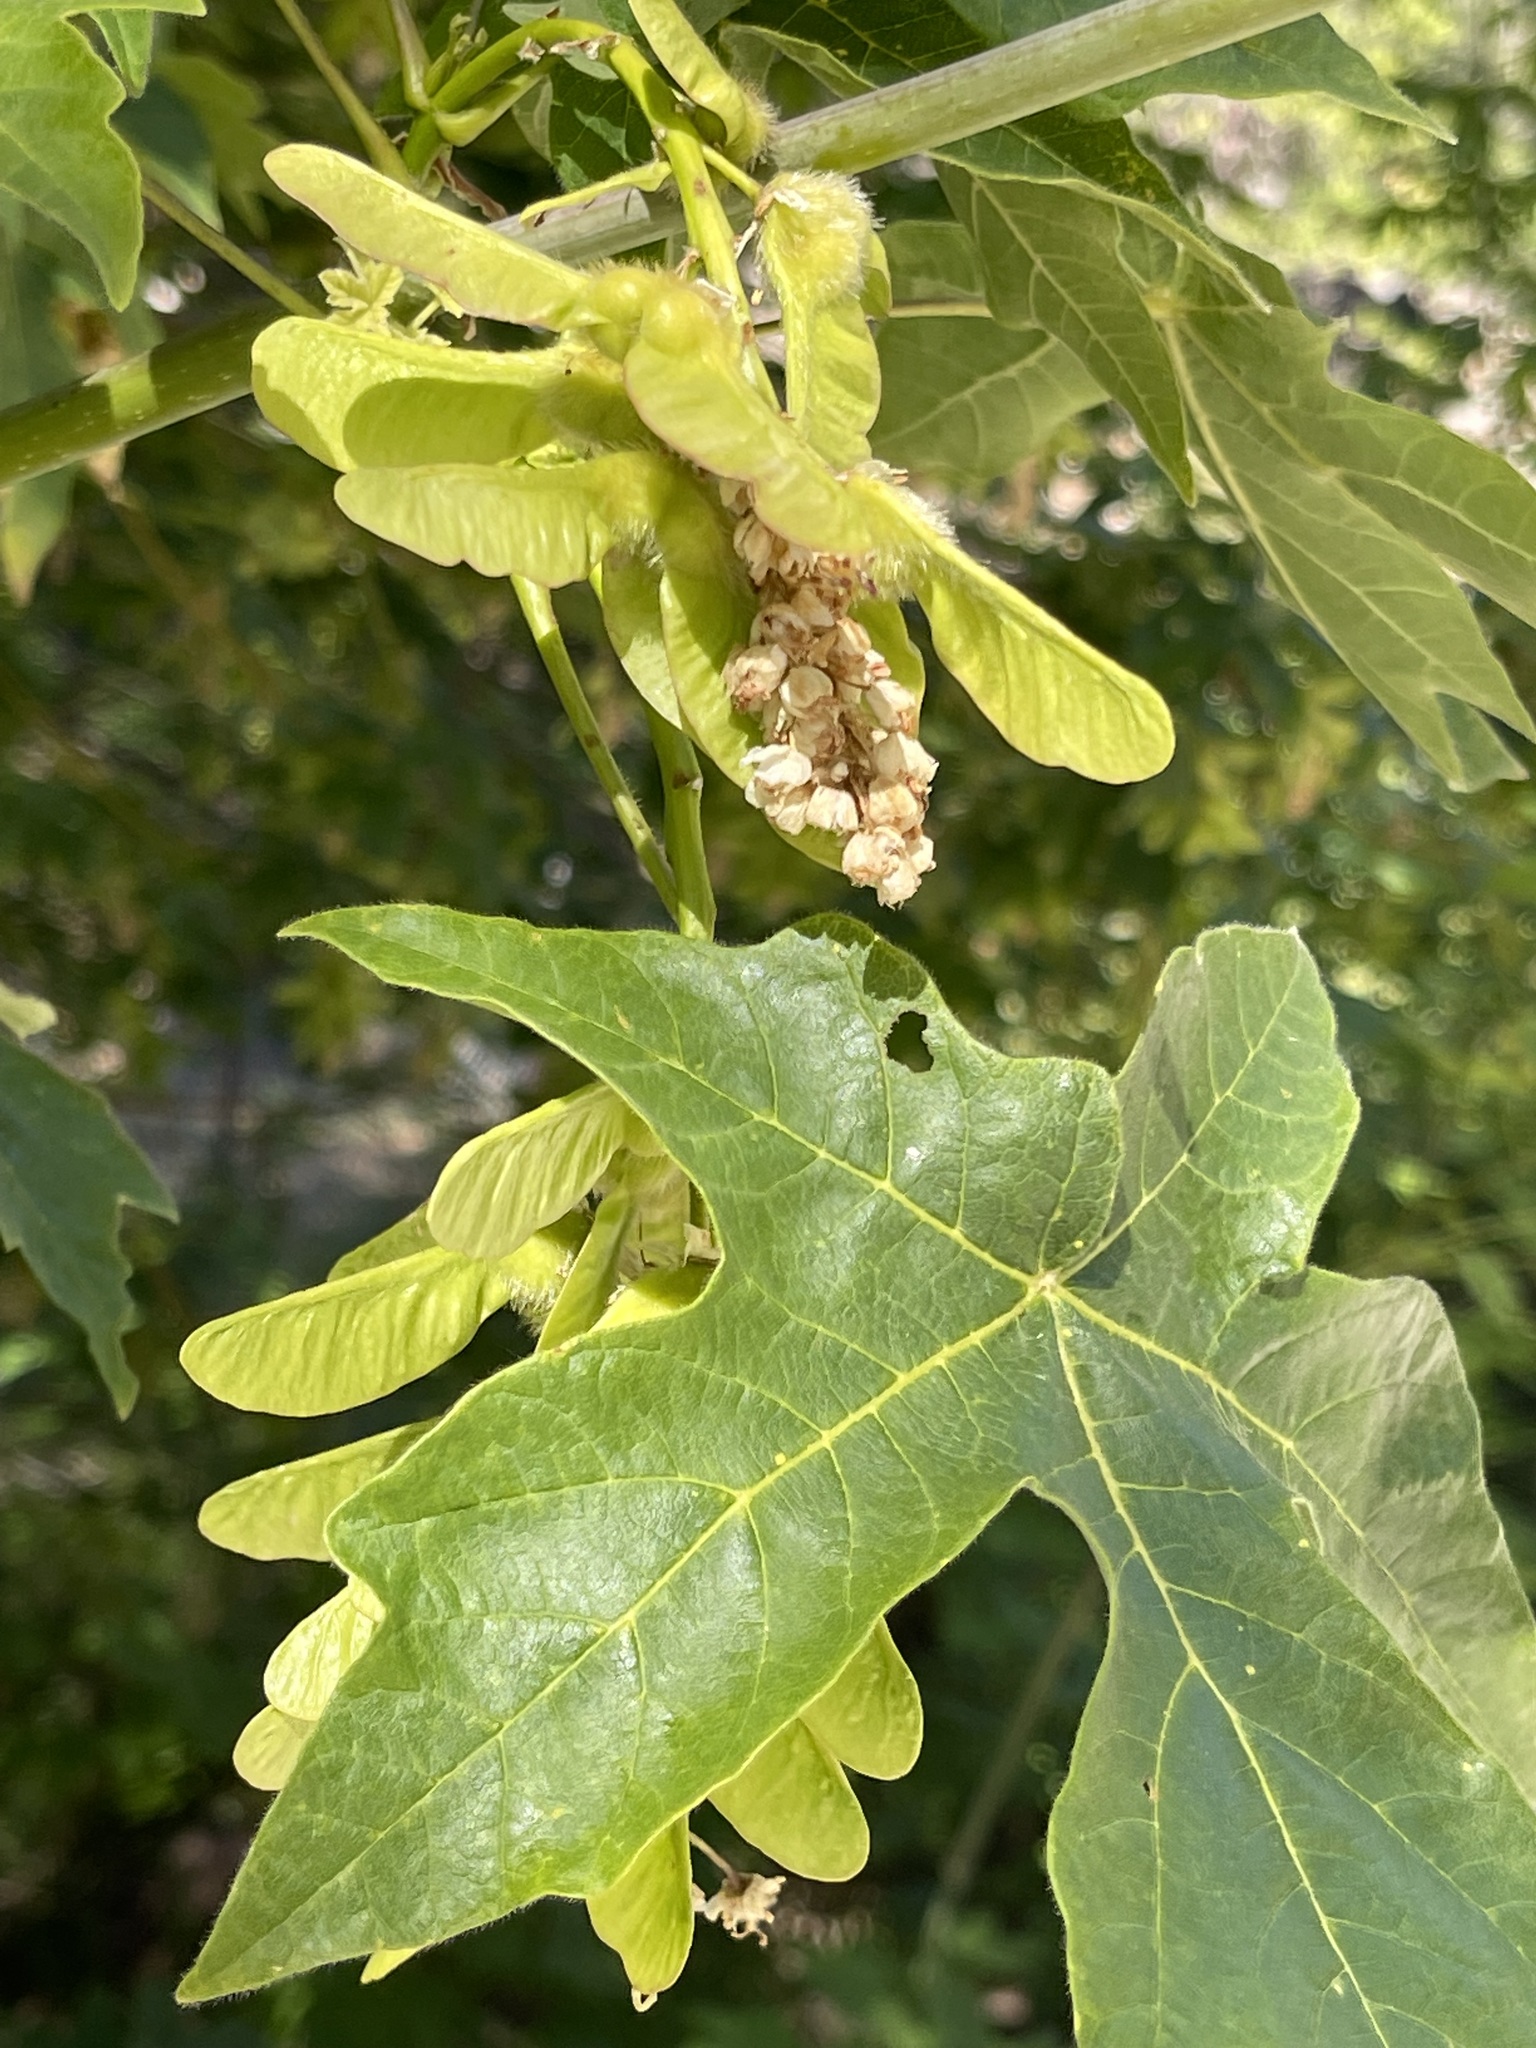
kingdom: Plantae
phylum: Tracheophyta
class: Magnoliopsida
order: Sapindales
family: Sapindaceae
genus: Acer
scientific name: Acer macrophyllum
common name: Oregon maple
